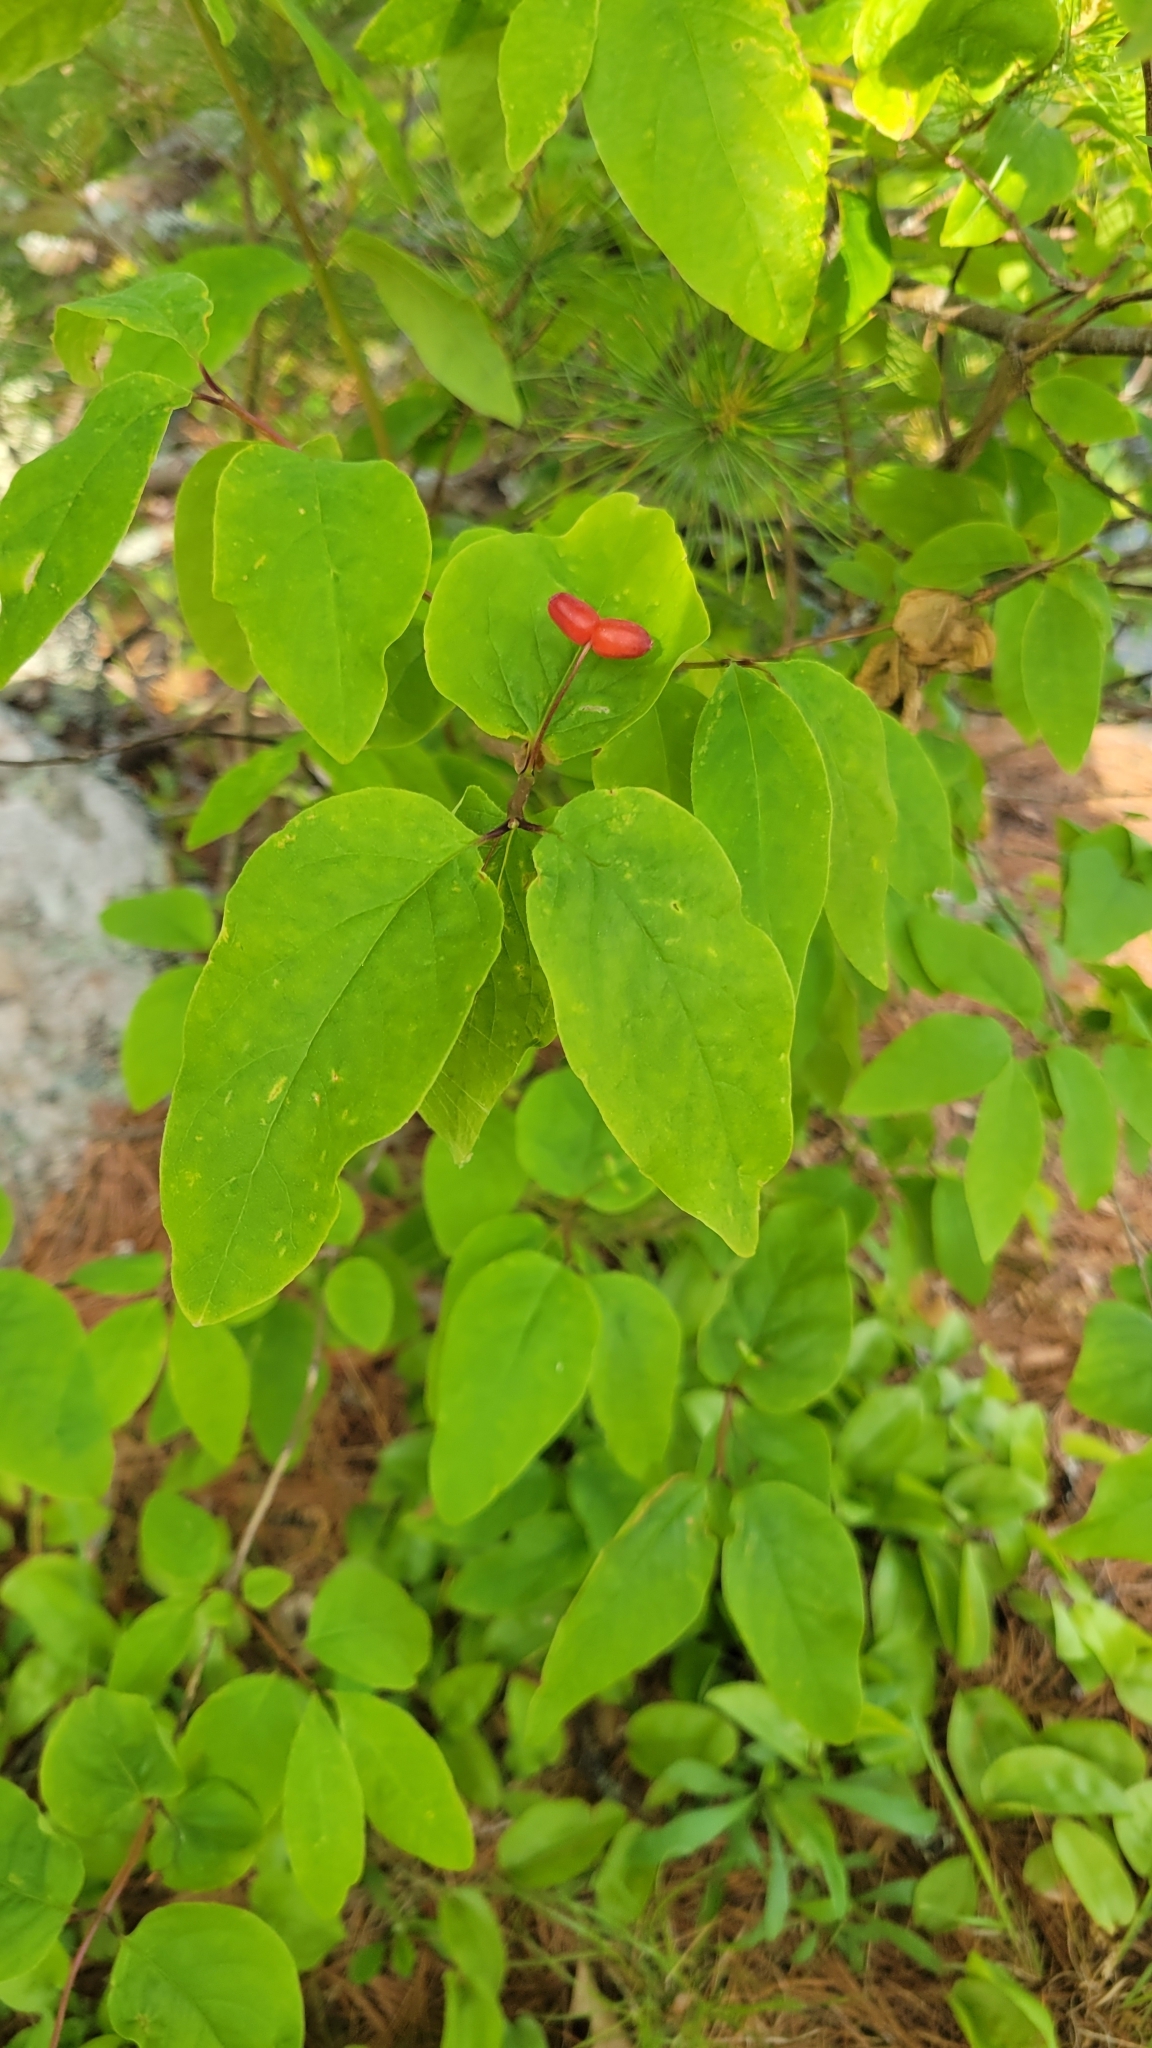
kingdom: Plantae
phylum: Tracheophyta
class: Magnoliopsida
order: Dipsacales
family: Caprifoliaceae
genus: Lonicera
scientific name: Lonicera canadensis
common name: American fly-honeysuckle
